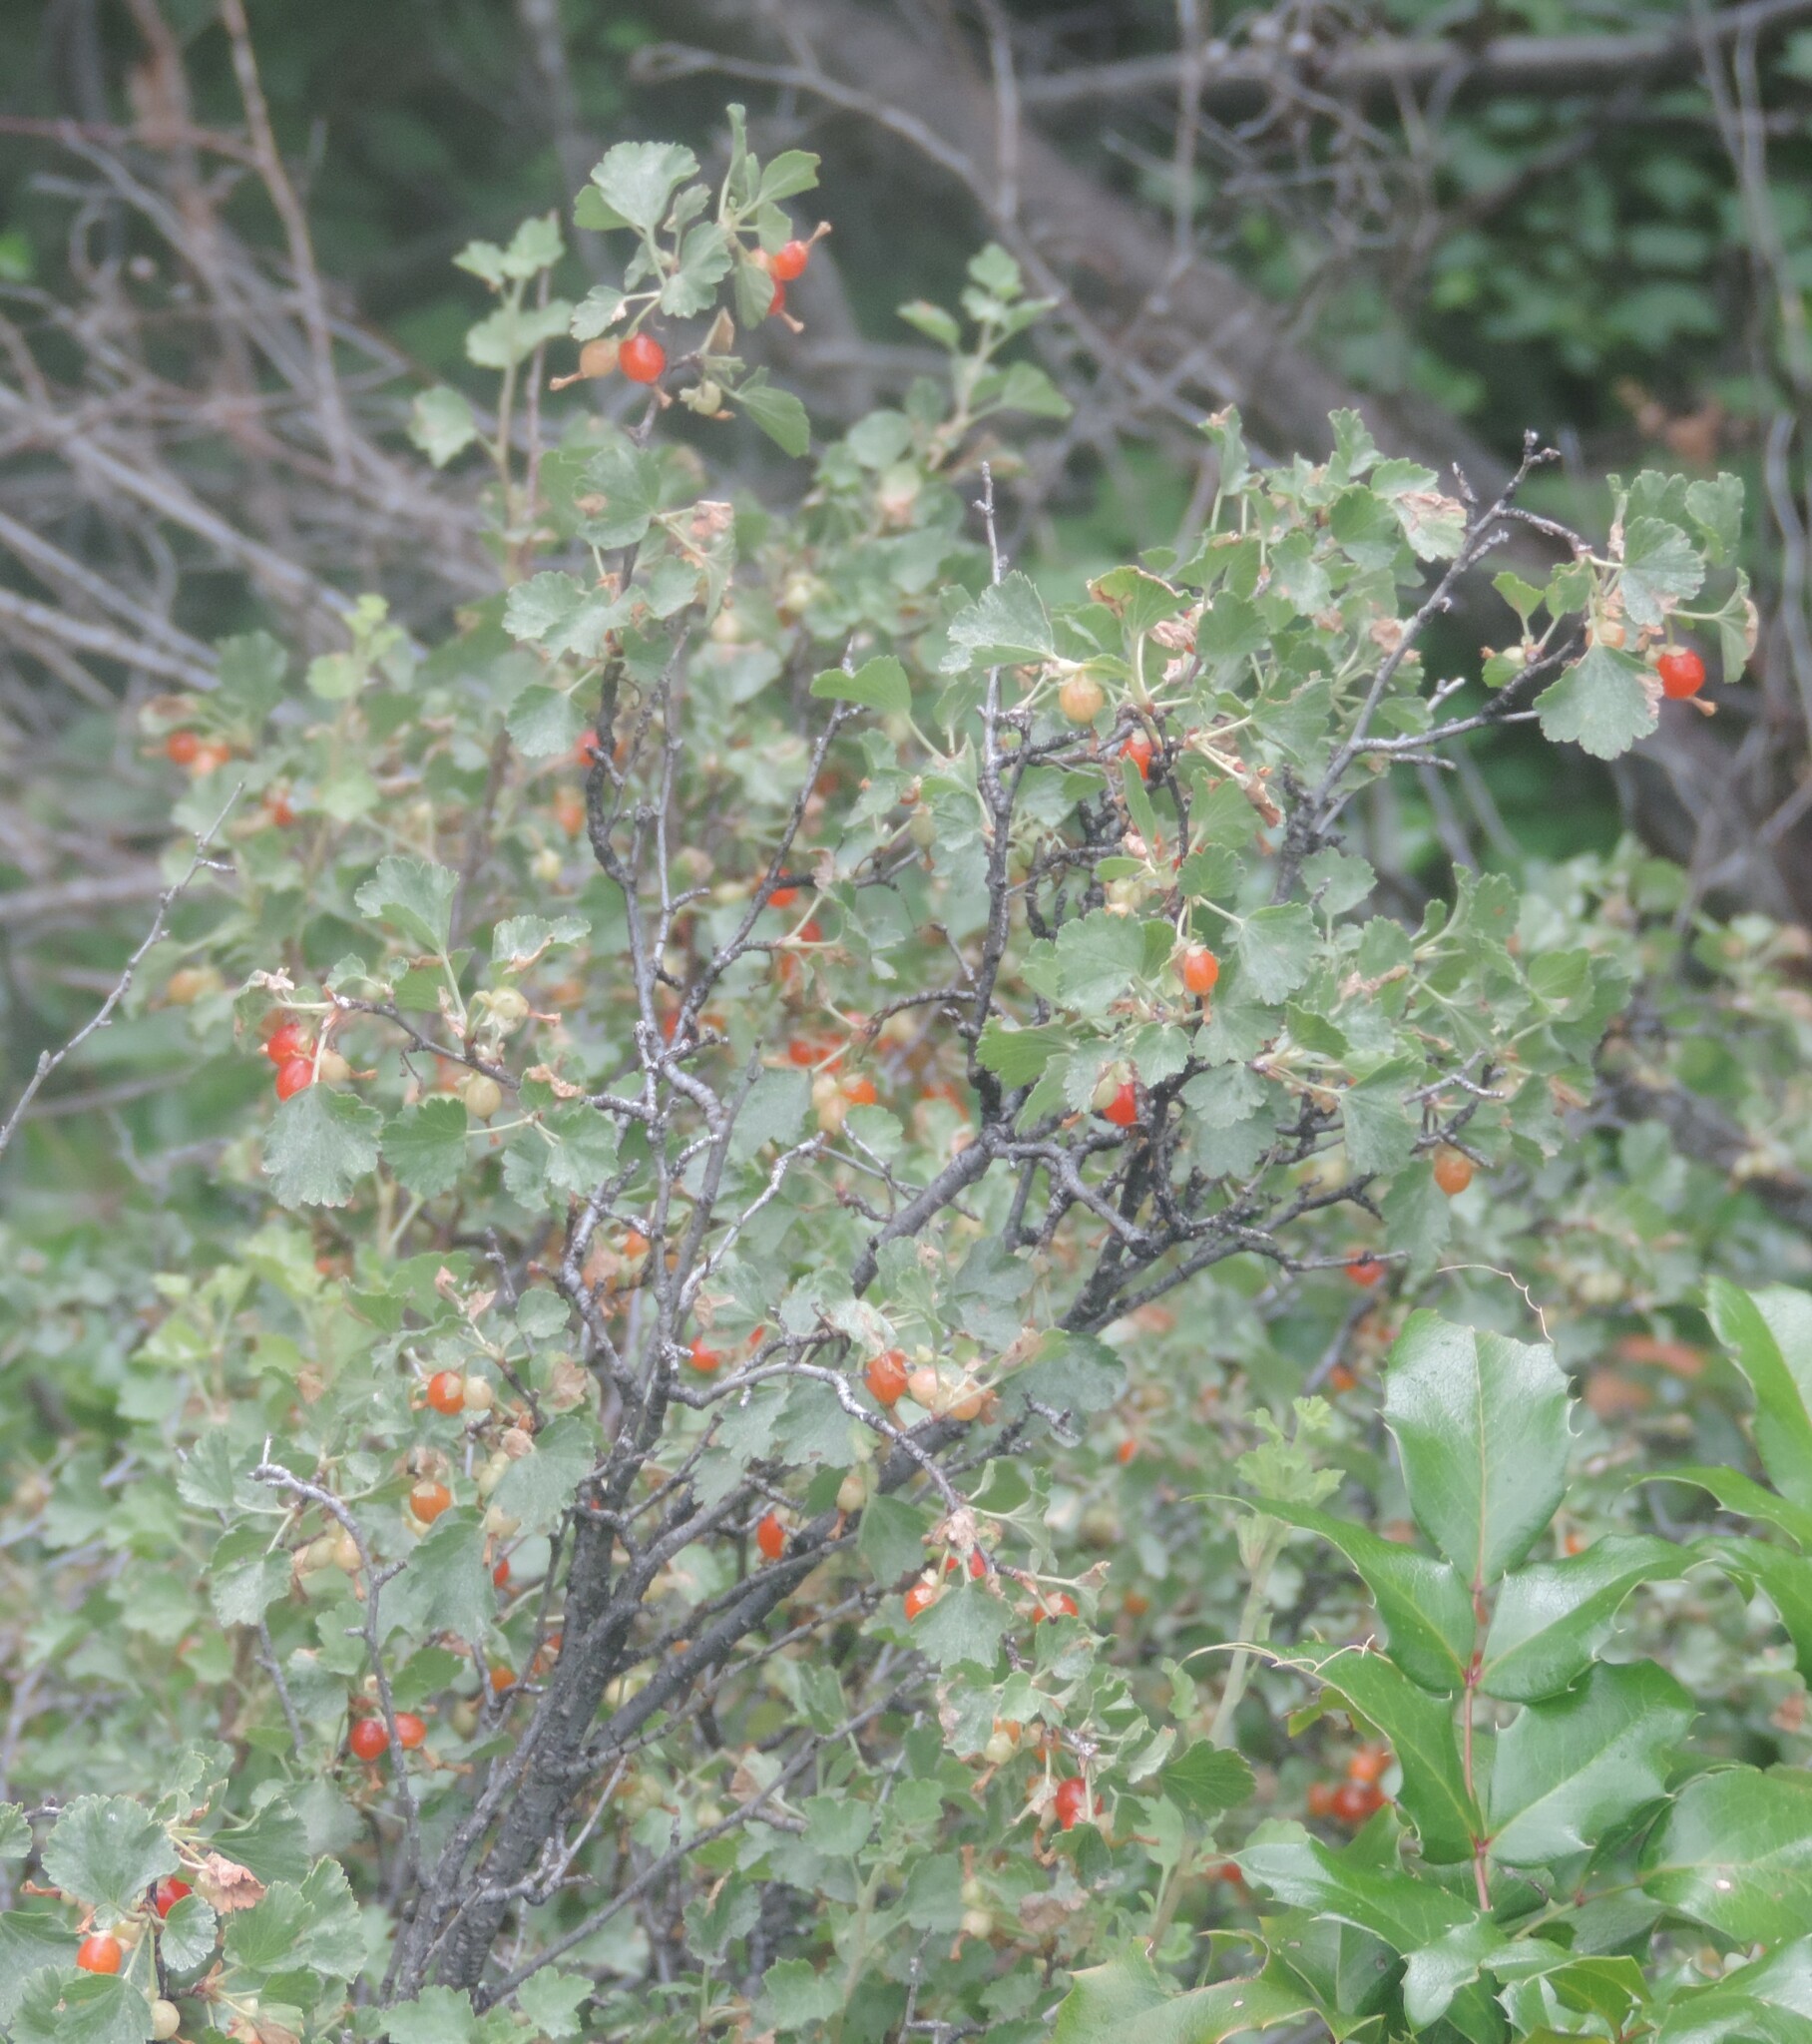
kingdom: Plantae
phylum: Tracheophyta
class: Magnoliopsida
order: Saxifragales
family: Grossulariaceae
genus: Ribes
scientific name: Ribes cereum
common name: Wax currant
